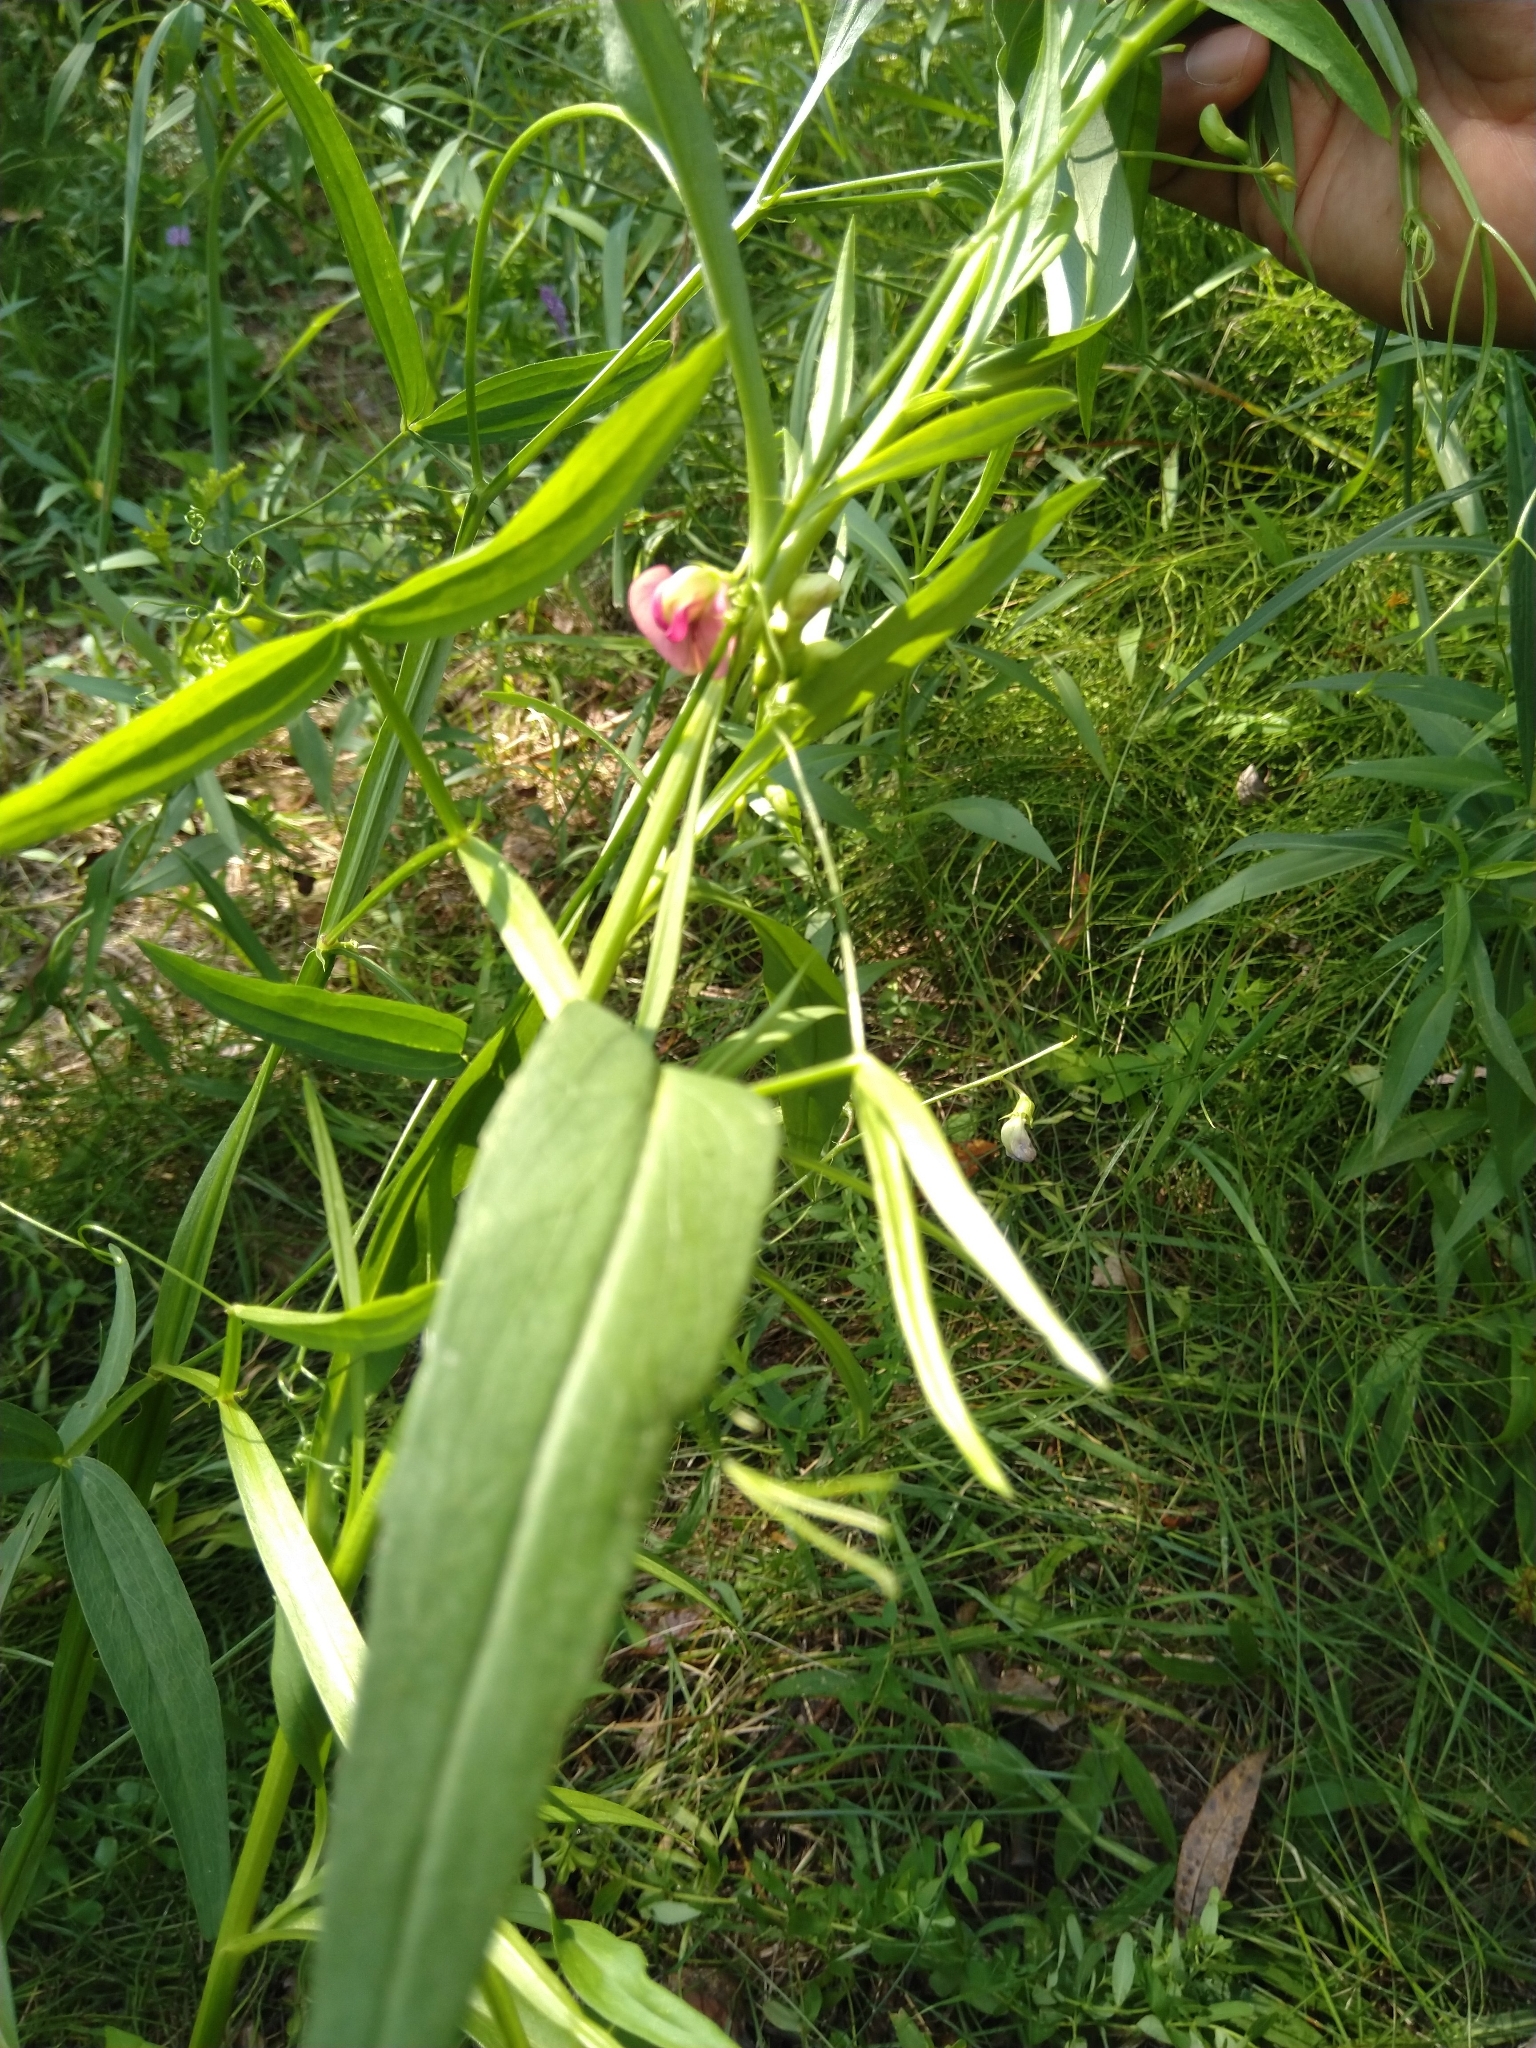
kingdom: Plantae
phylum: Tracheophyta
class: Magnoliopsida
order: Fabales
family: Fabaceae
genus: Lathyrus
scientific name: Lathyrus sylvestris
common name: Flat pea
